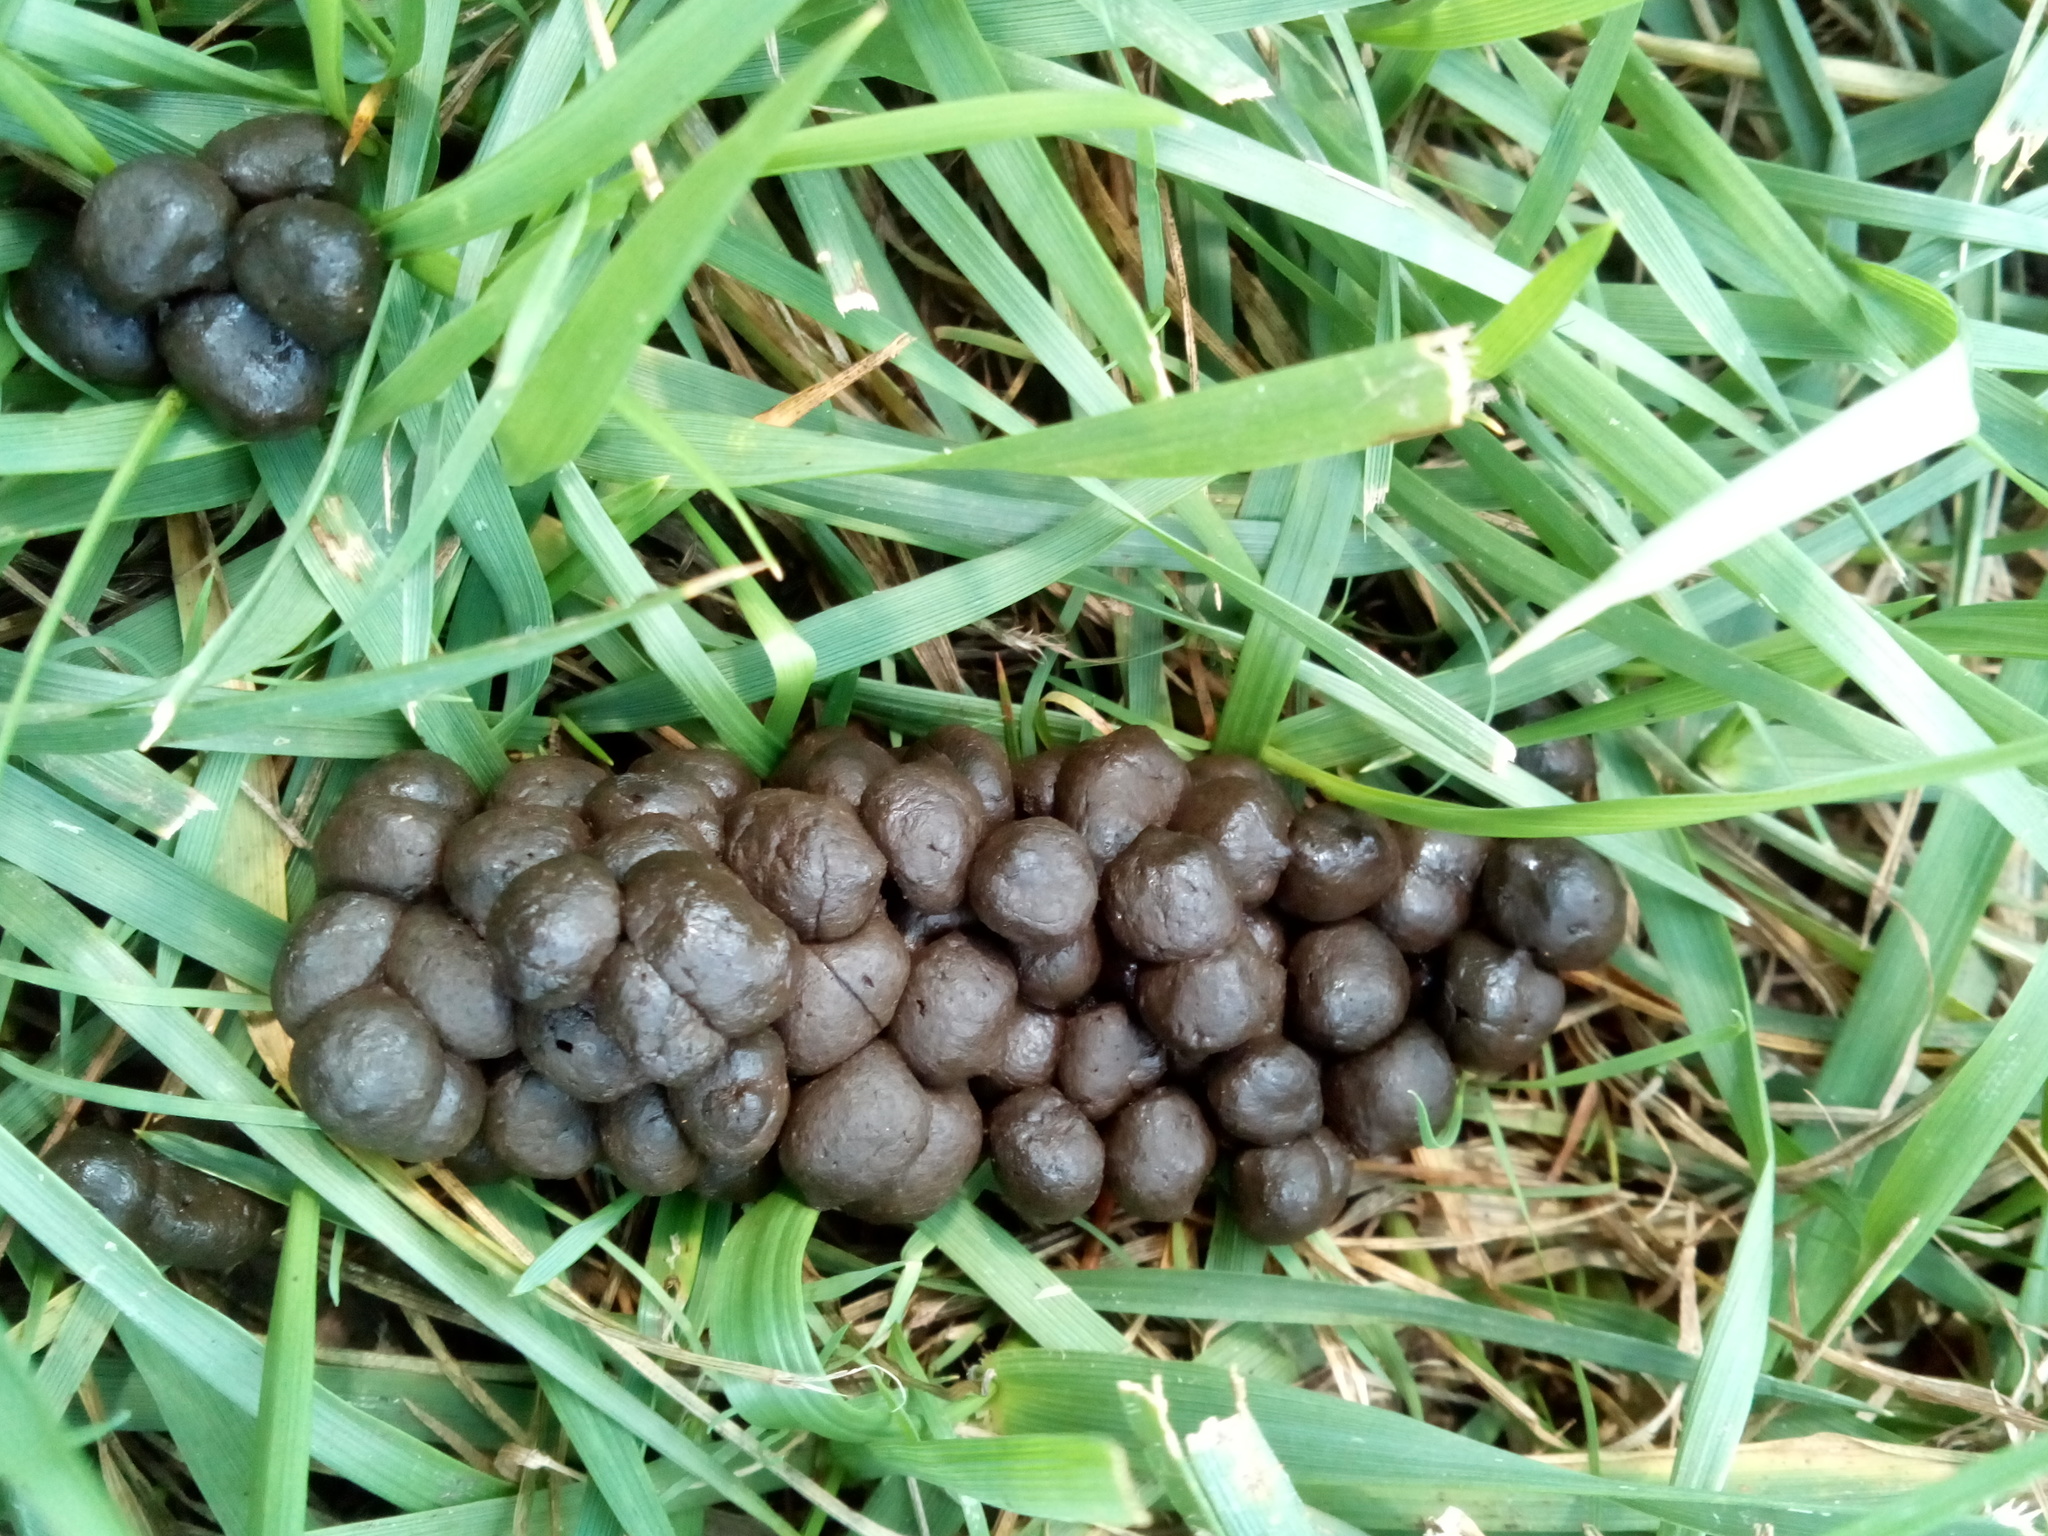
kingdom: Animalia
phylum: Chordata
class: Mammalia
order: Artiodactyla
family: Cervidae
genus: Odocoileus
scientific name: Odocoileus virginianus
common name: White-tailed deer
